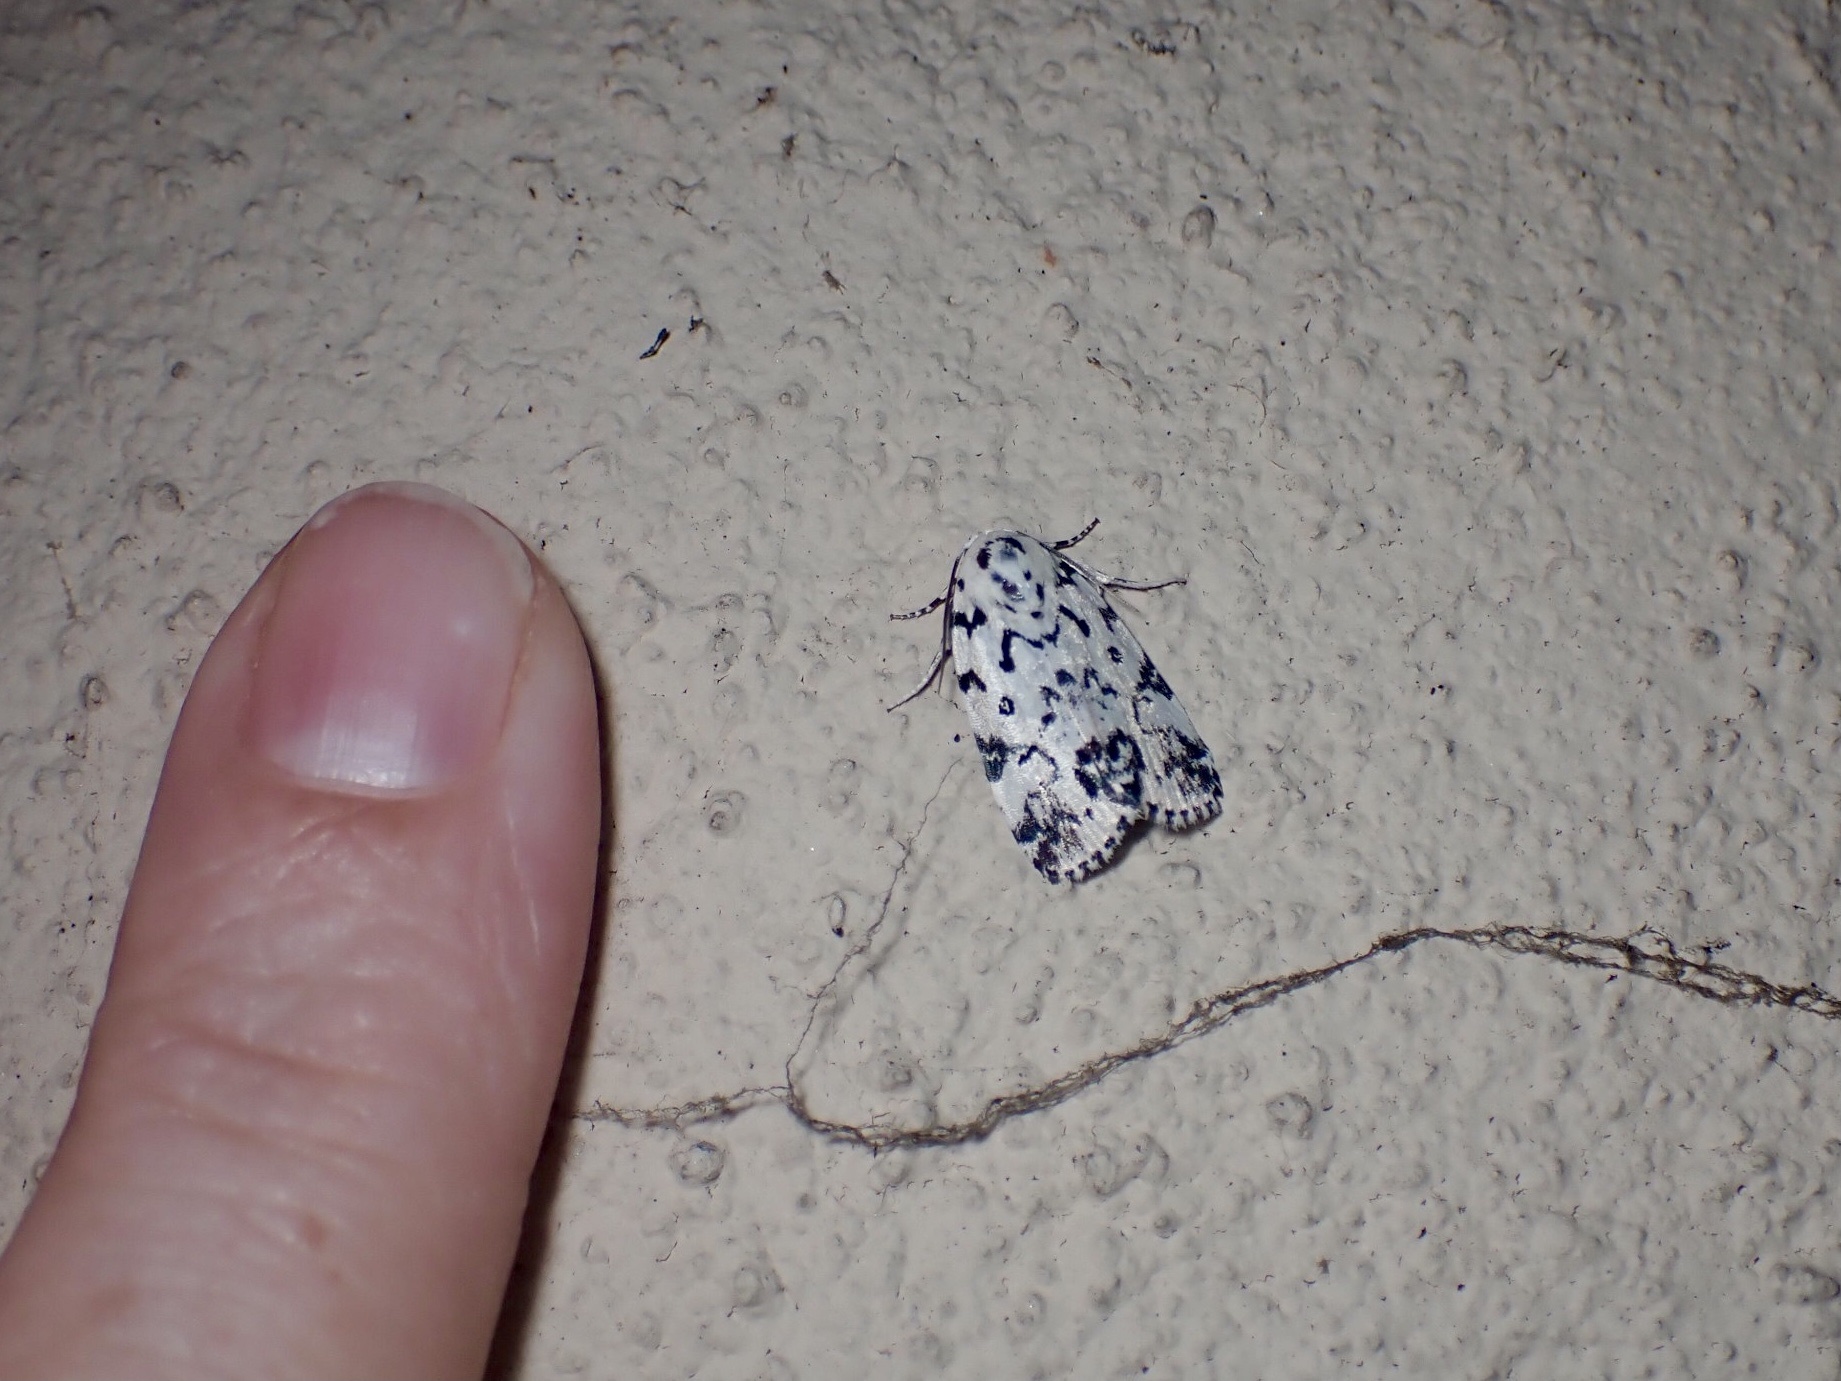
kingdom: Animalia
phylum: Arthropoda
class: Insecta
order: Lepidoptera
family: Noctuidae
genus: Polygrammate
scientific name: Polygrammate hebraeicum
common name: Hebrew moth
